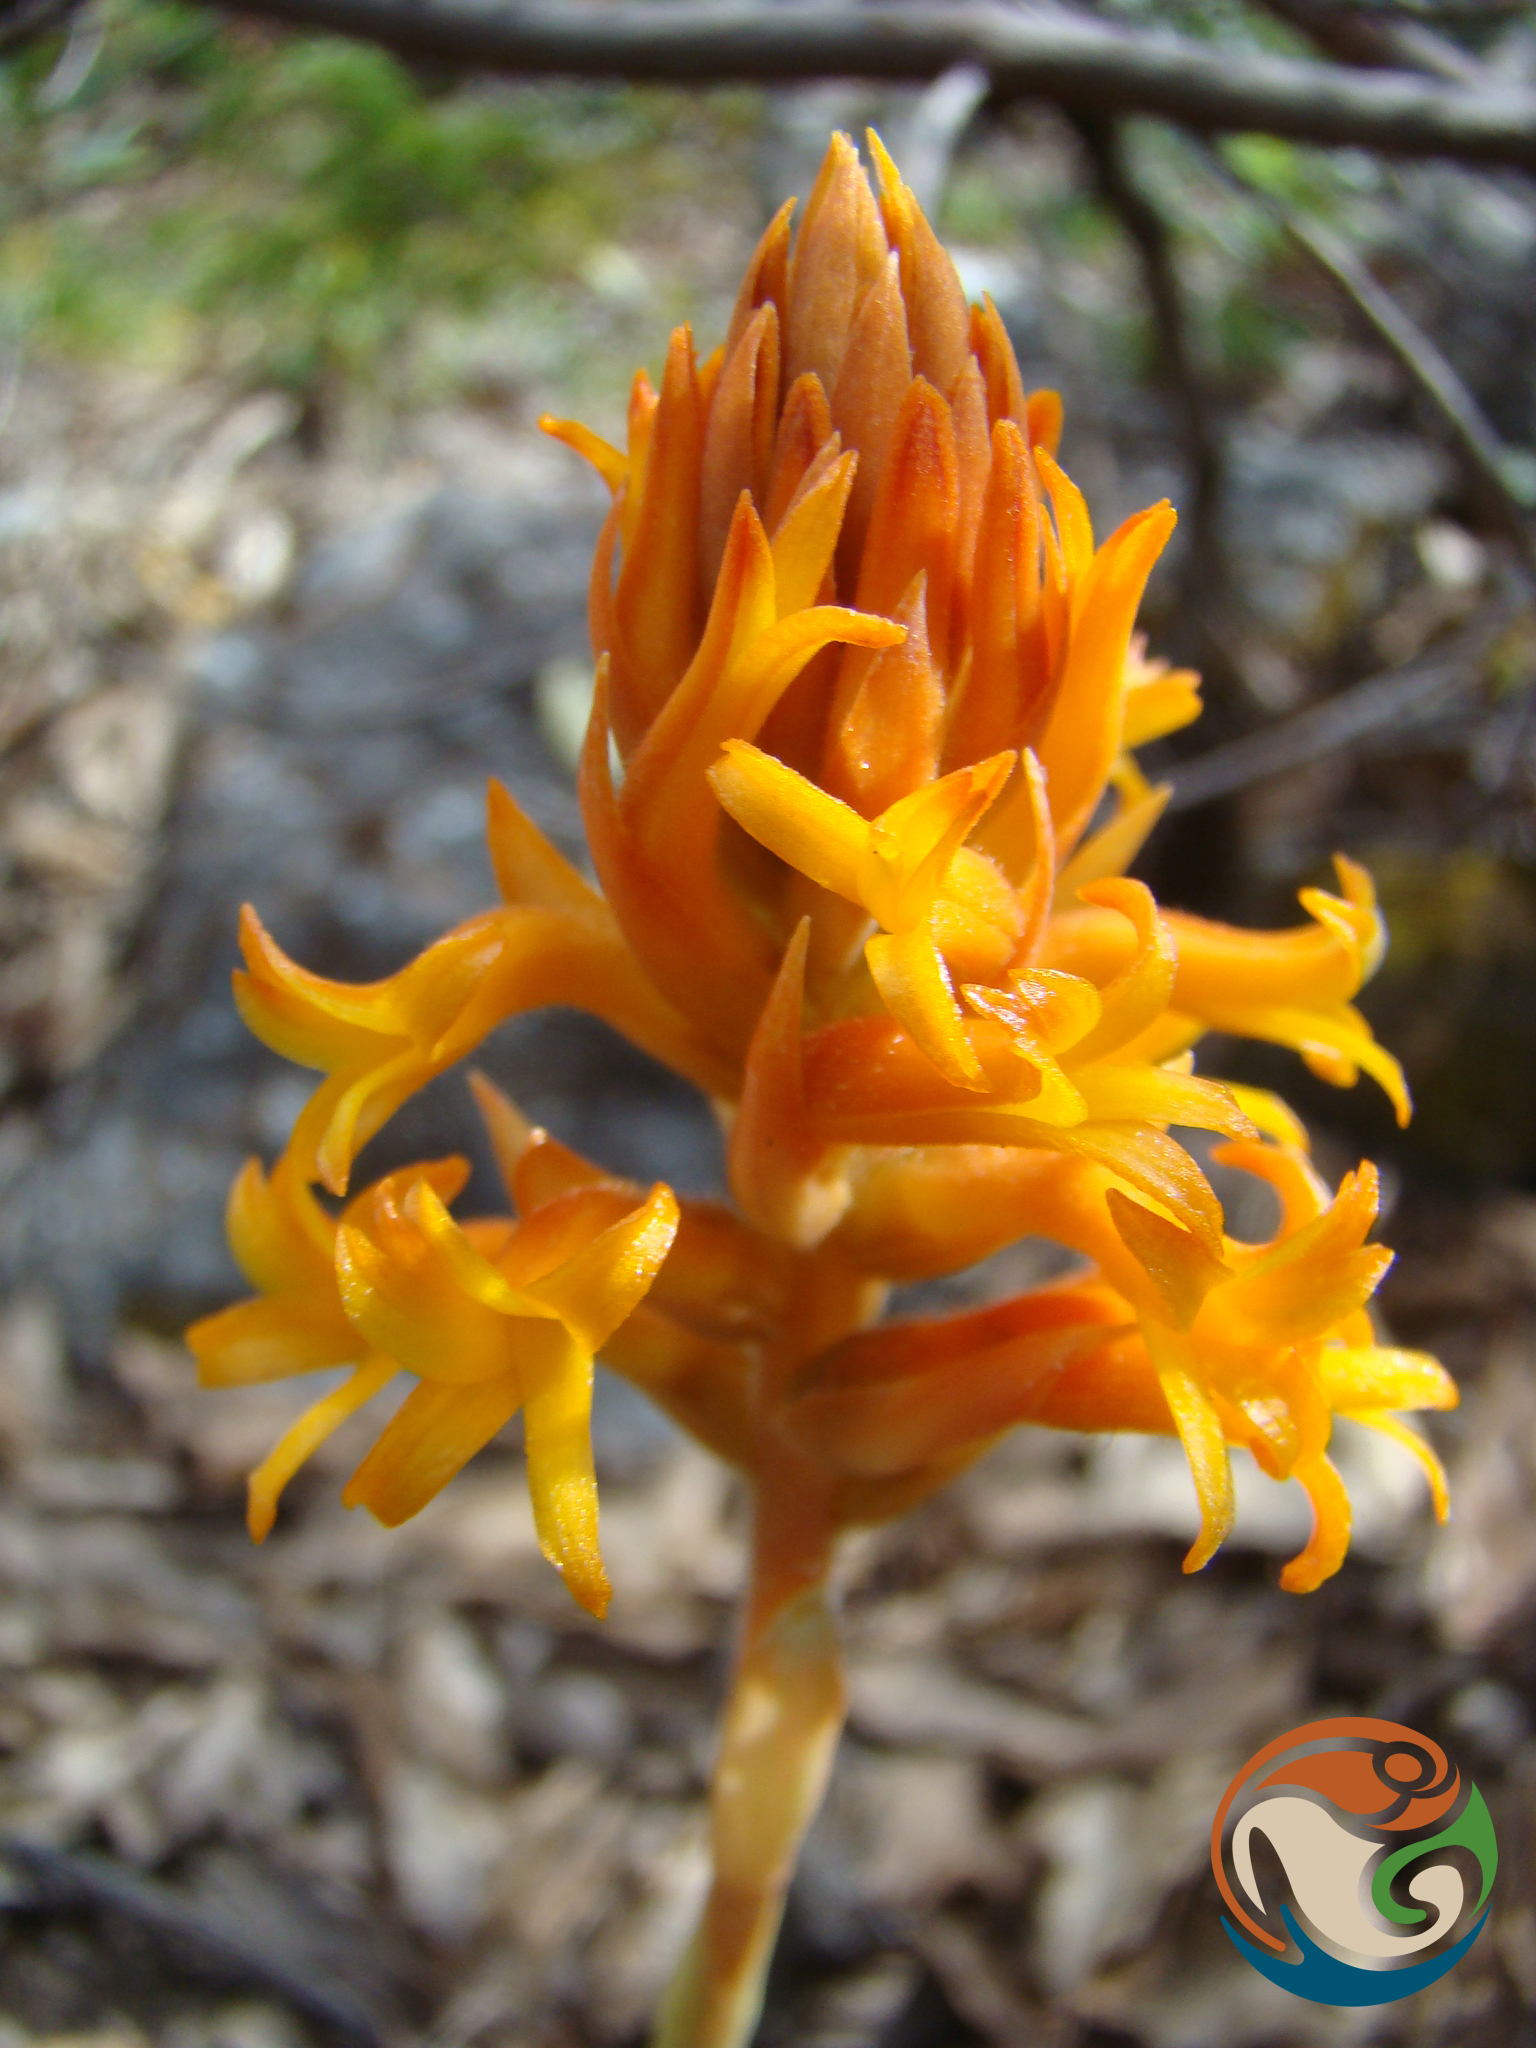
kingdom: Plantae
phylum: Tracheophyta
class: Liliopsida
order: Asparagales
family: Orchidaceae
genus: Dichromanthus
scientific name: Dichromanthus cinnabarinus
